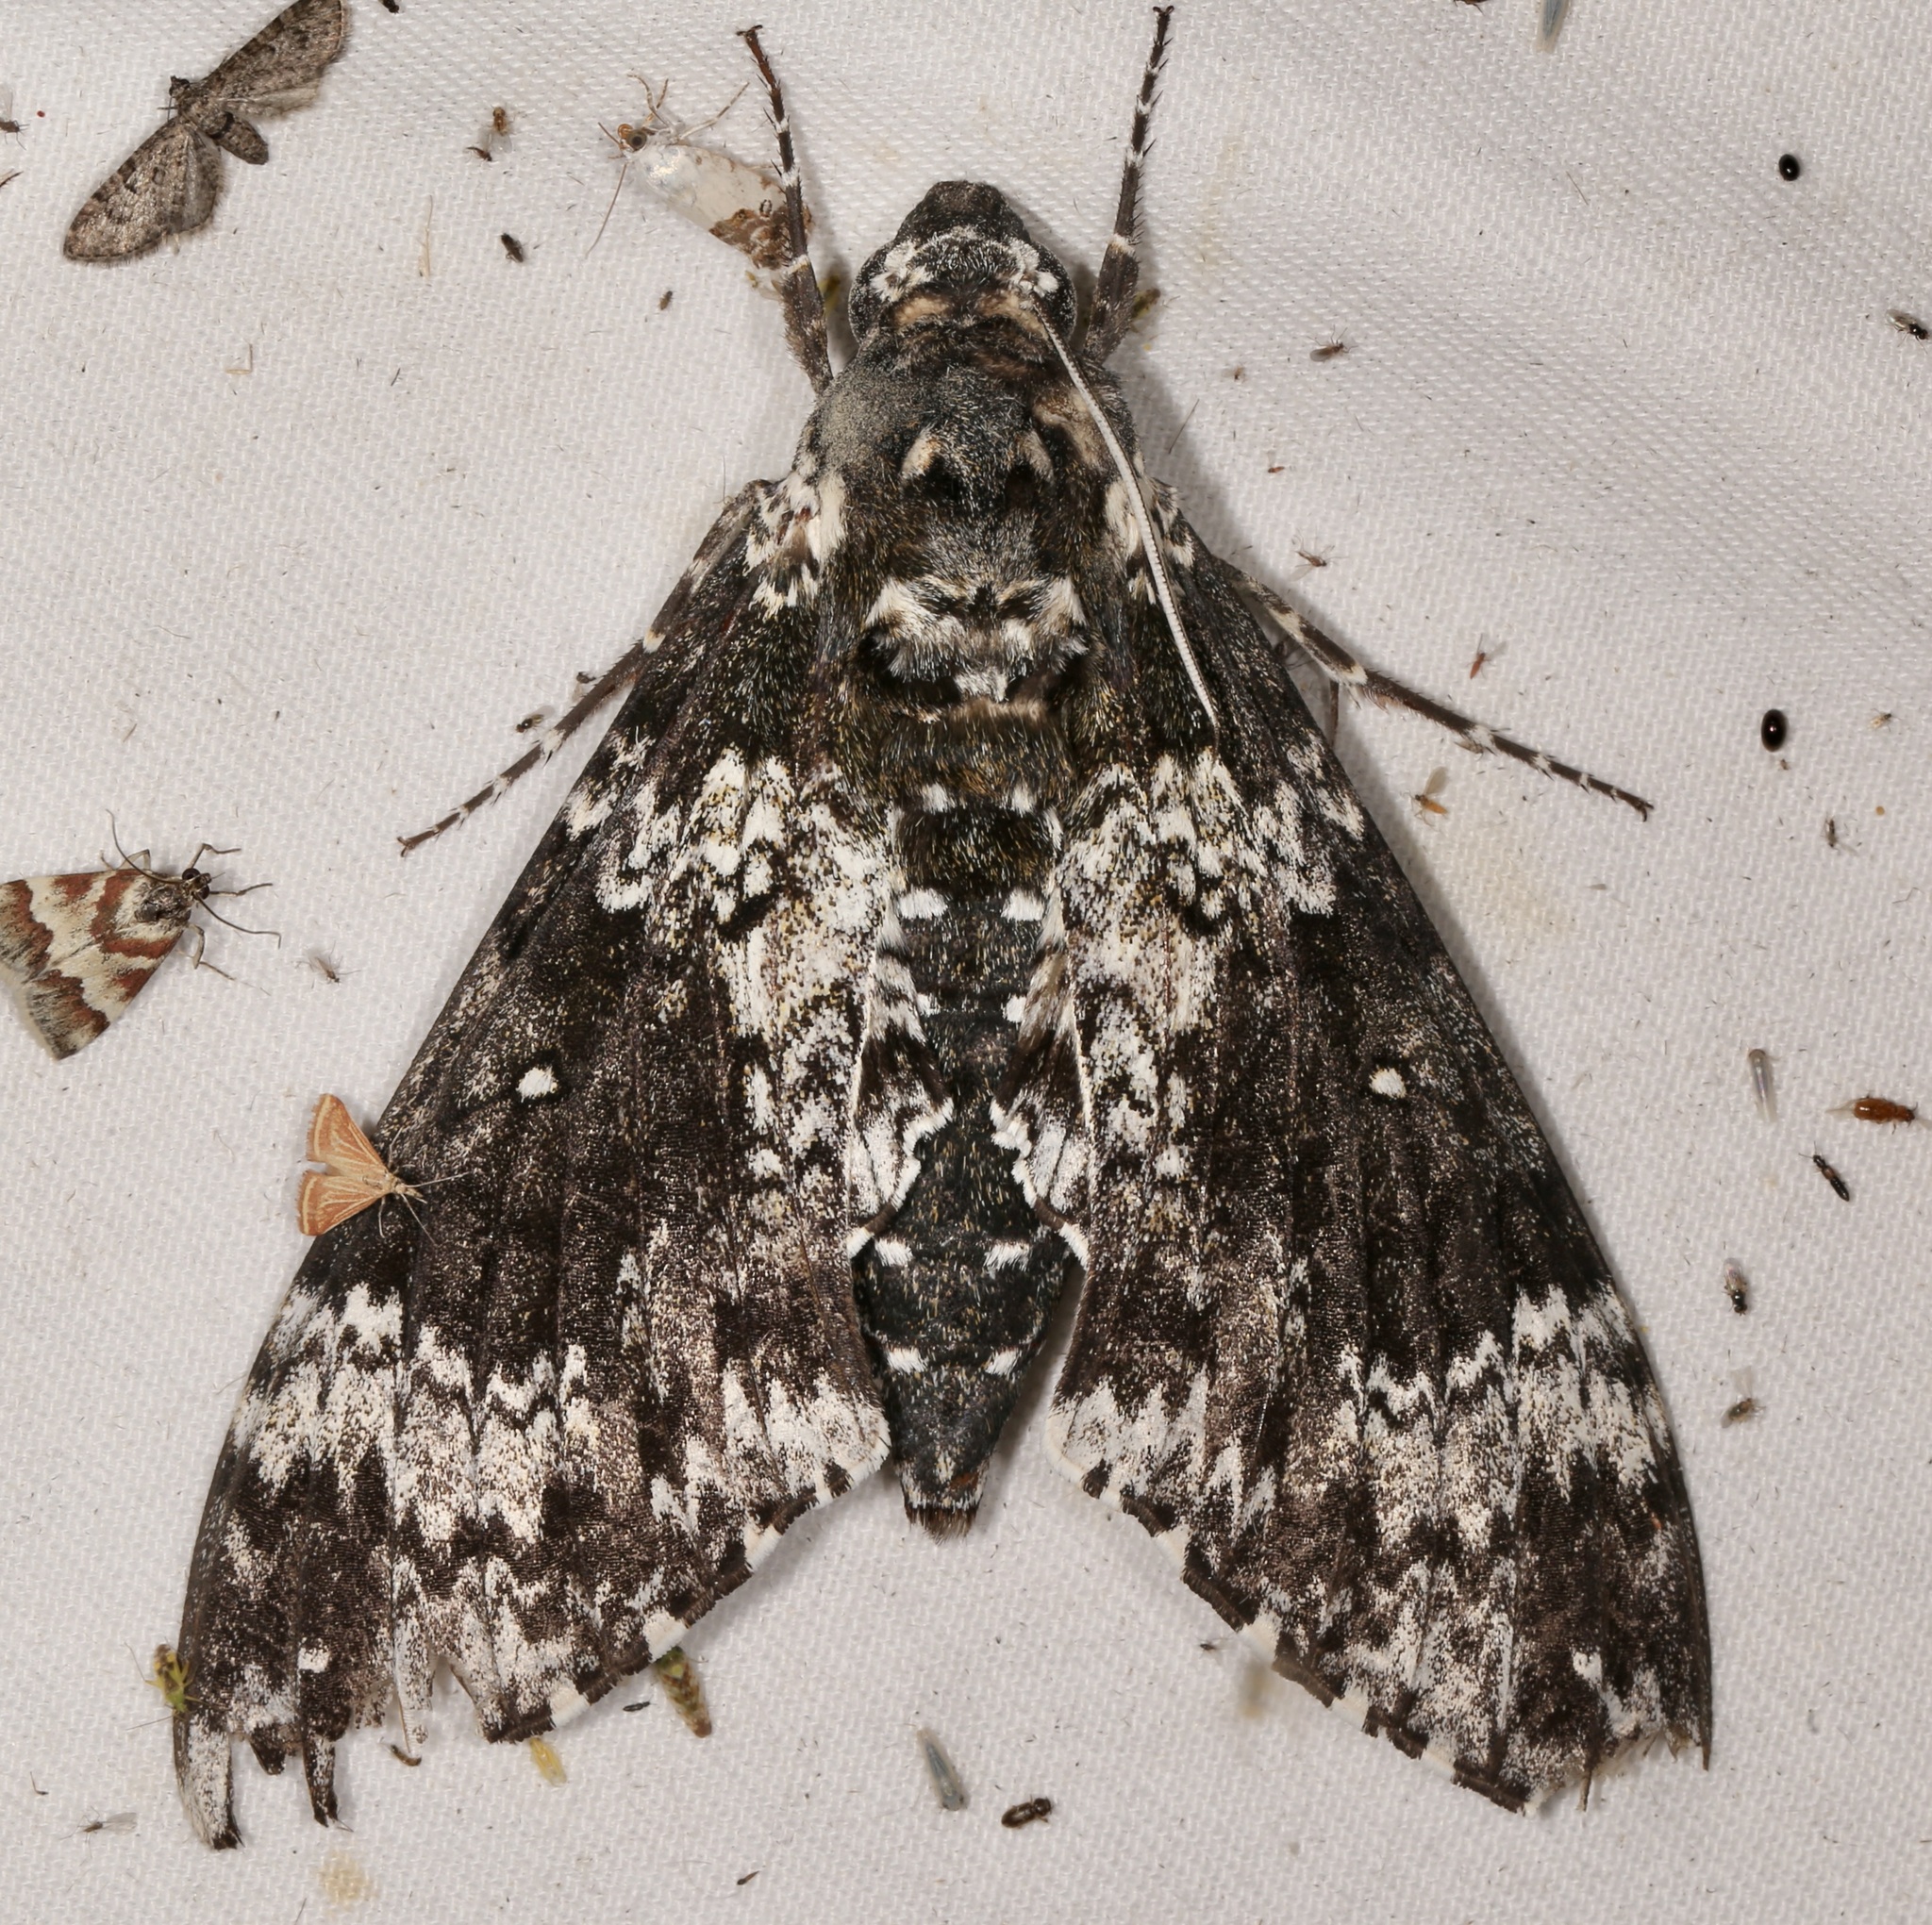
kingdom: Animalia
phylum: Arthropoda
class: Insecta
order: Lepidoptera
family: Sphingidae
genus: Manduca
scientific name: Manduca rustica
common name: Rustic sphinx
